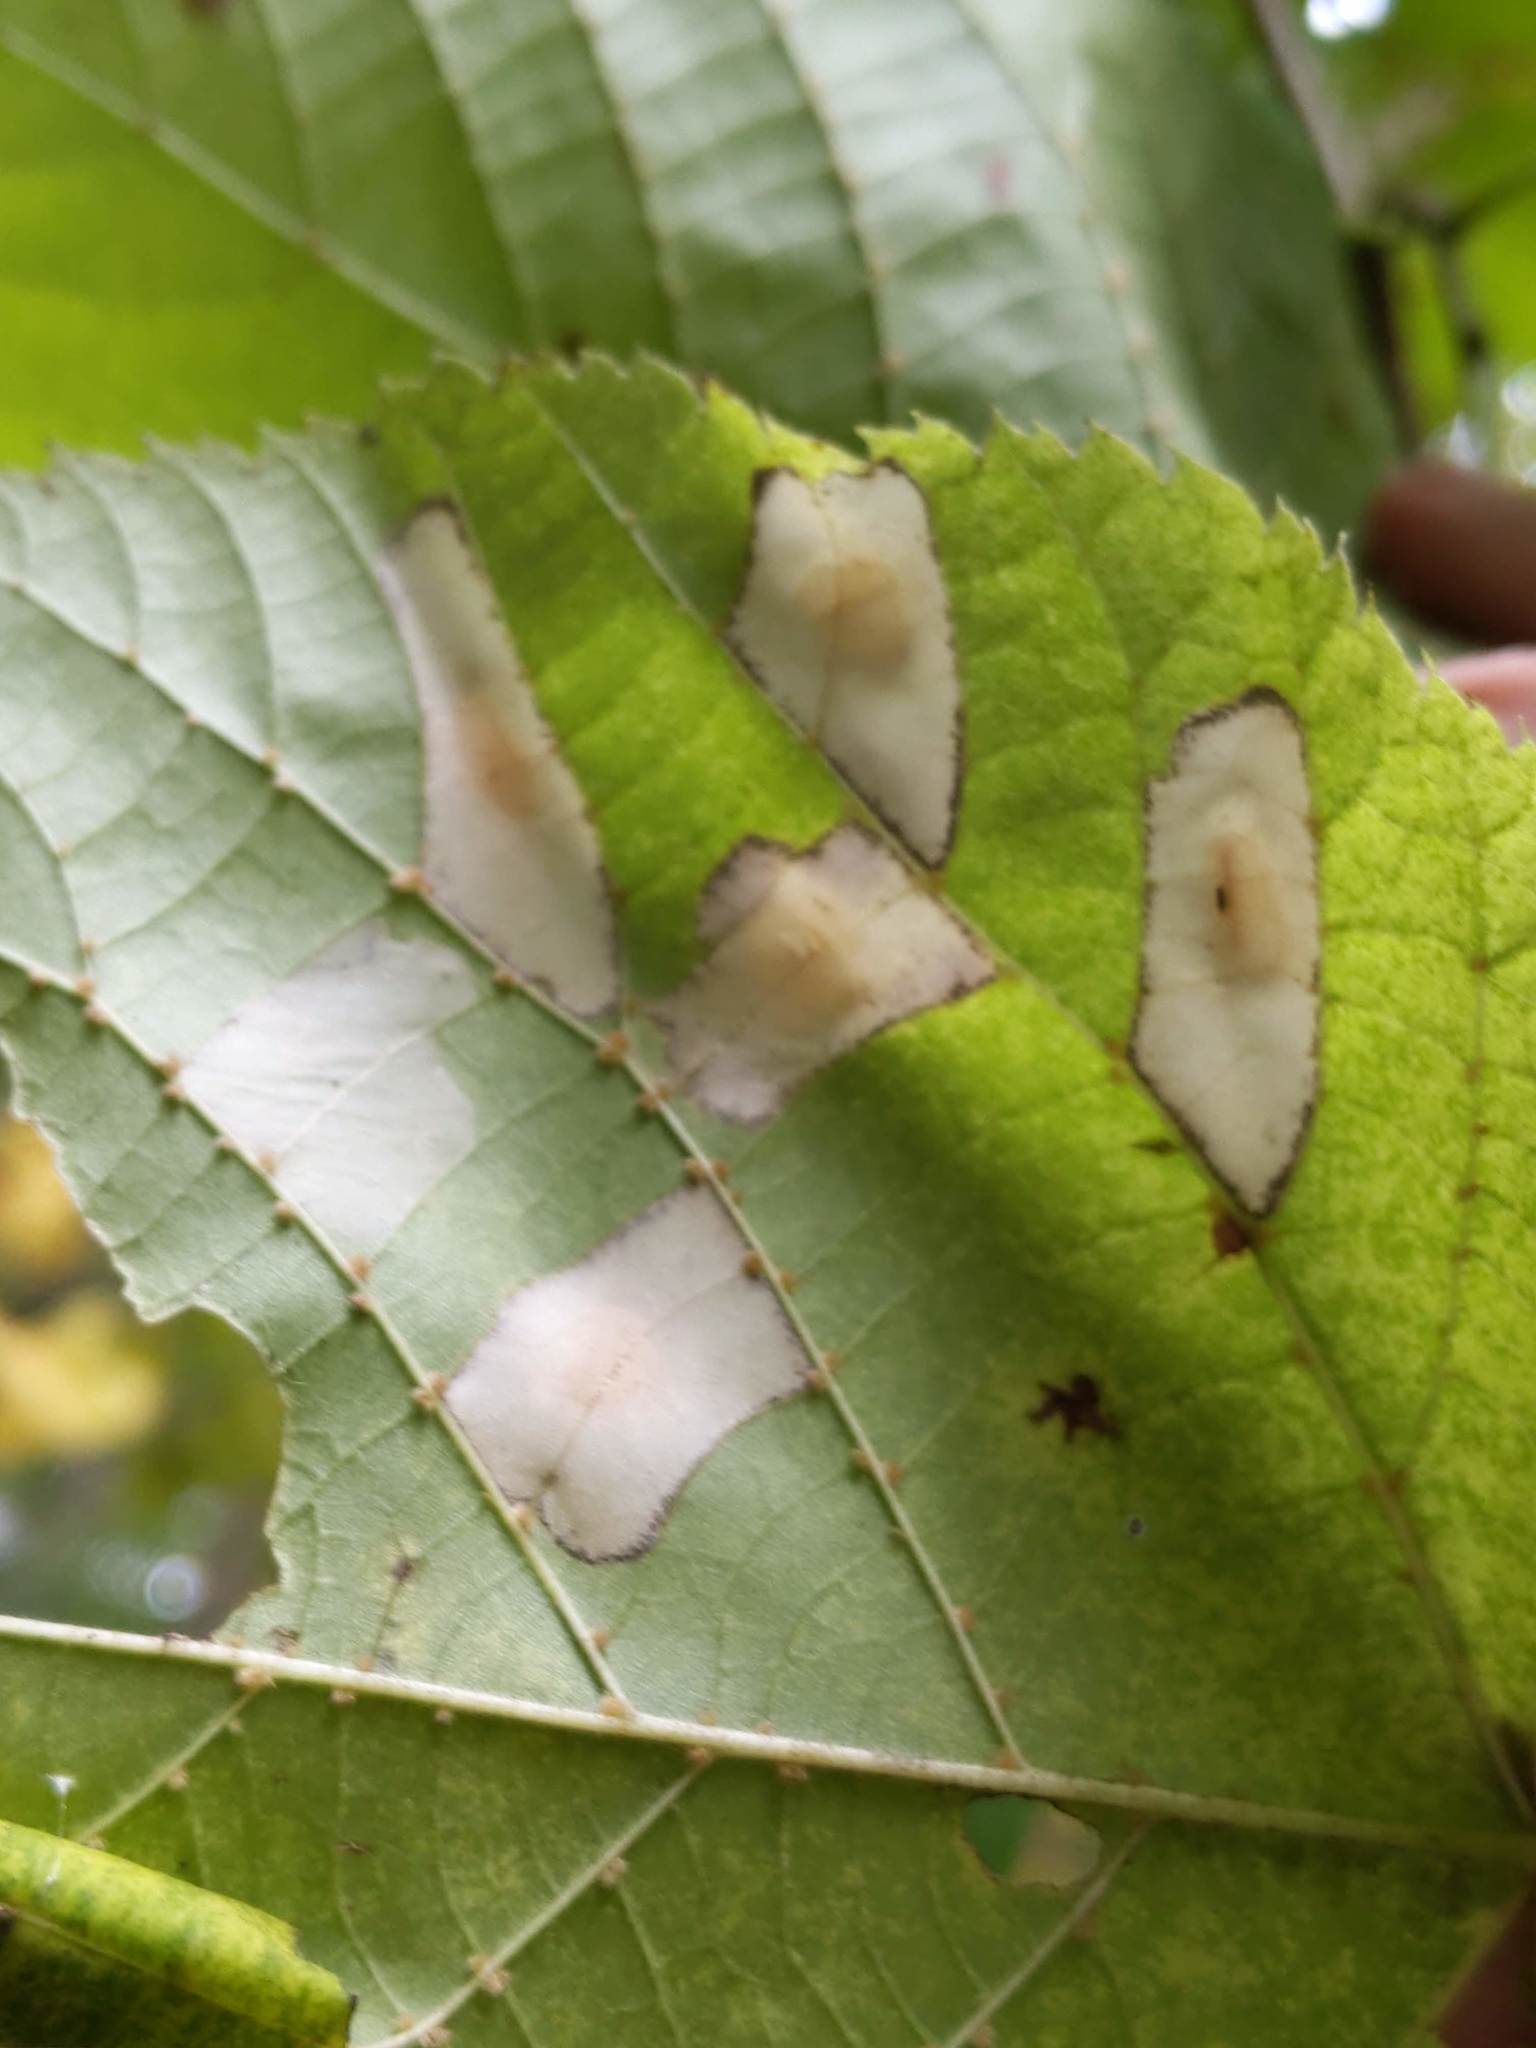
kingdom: Animalia
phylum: Arthropoda
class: Insecta
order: Lepidoptera
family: Gracillariidae
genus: Phyllonorycter
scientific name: Phyllonorycter lucetiella
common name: Basswood miner moth
